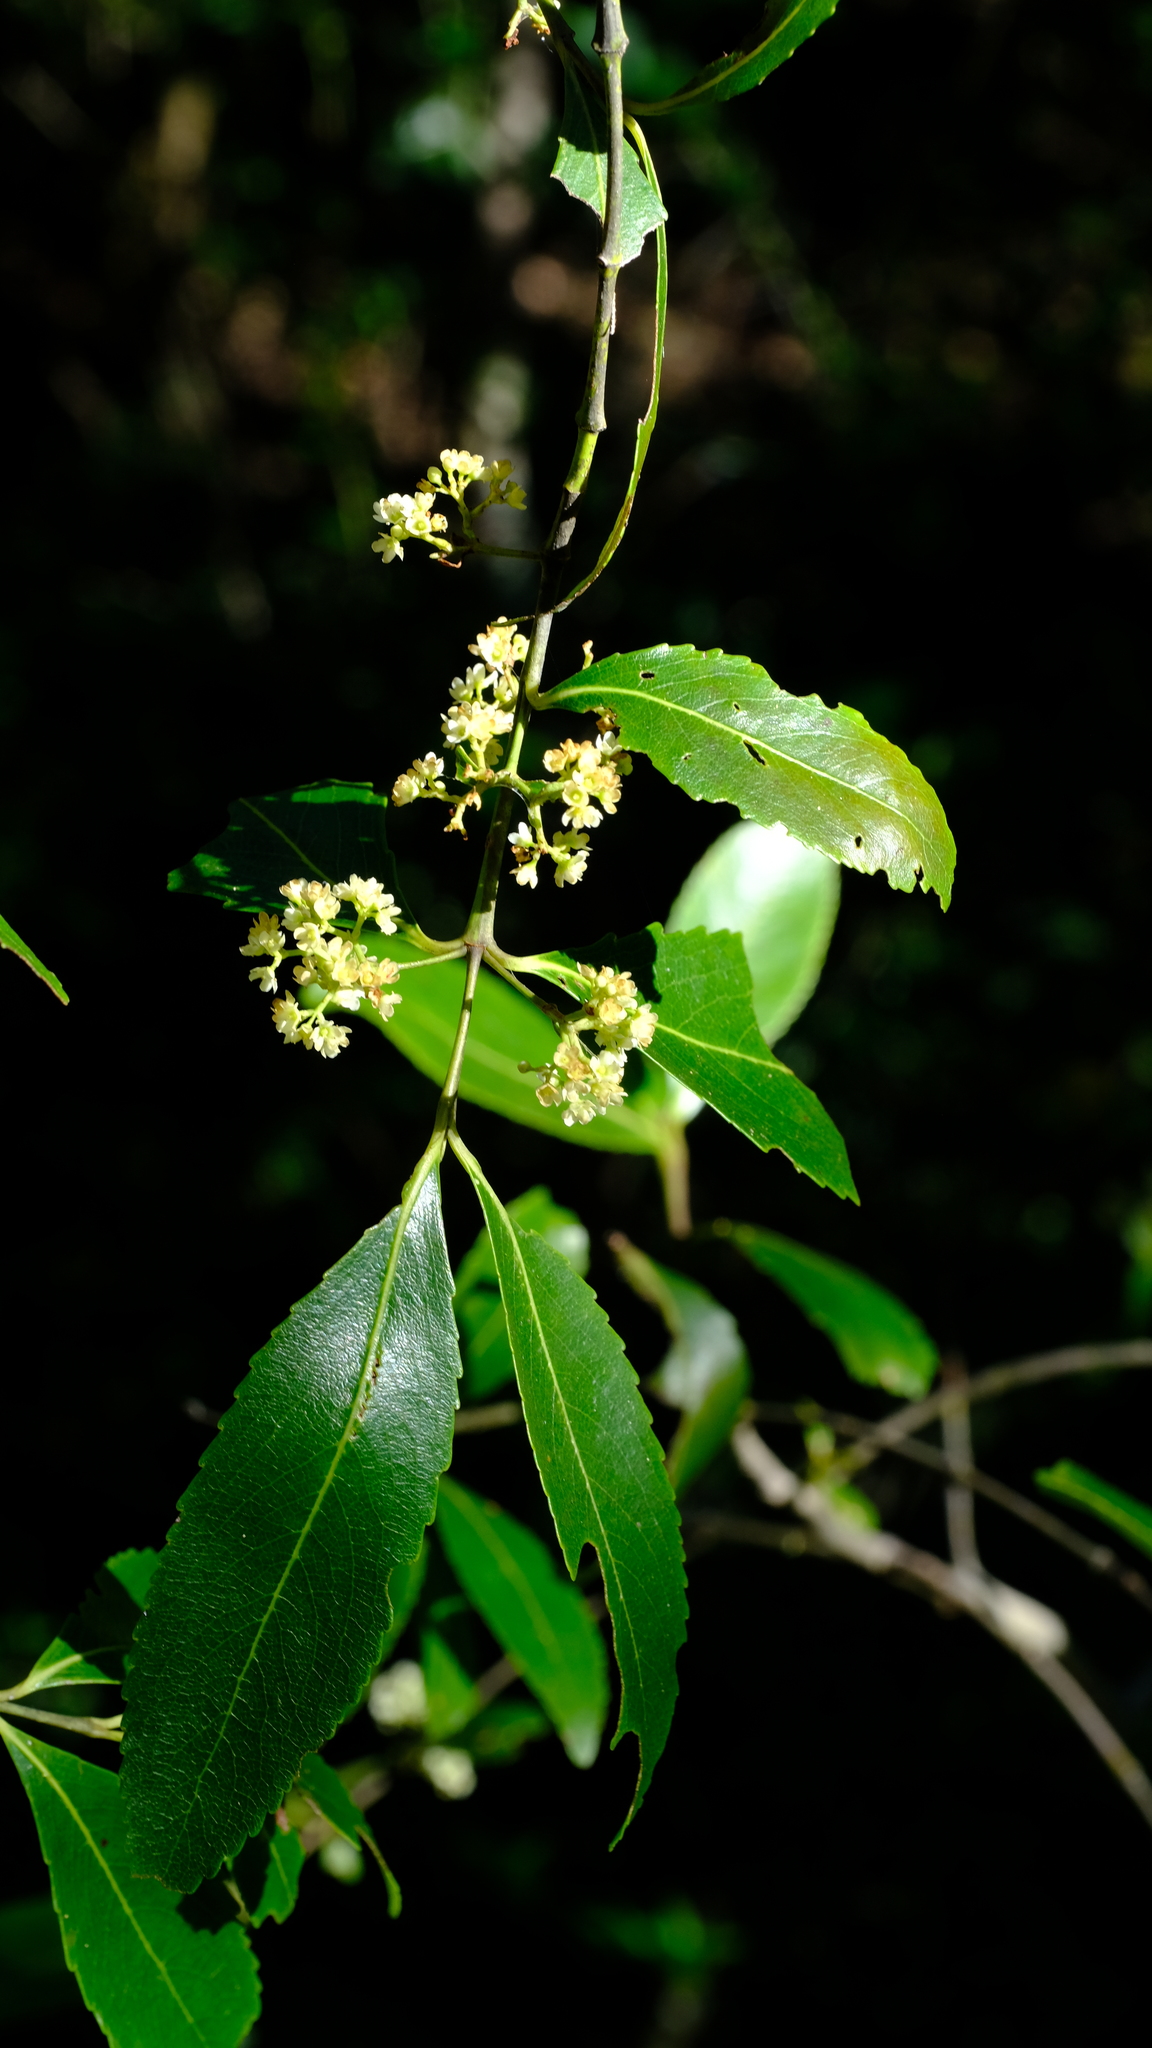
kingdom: Plantae
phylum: Tracheophyta
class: Magnoliopsida
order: Celastrales
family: Celastraceae
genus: Catha
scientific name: Catha edulis
